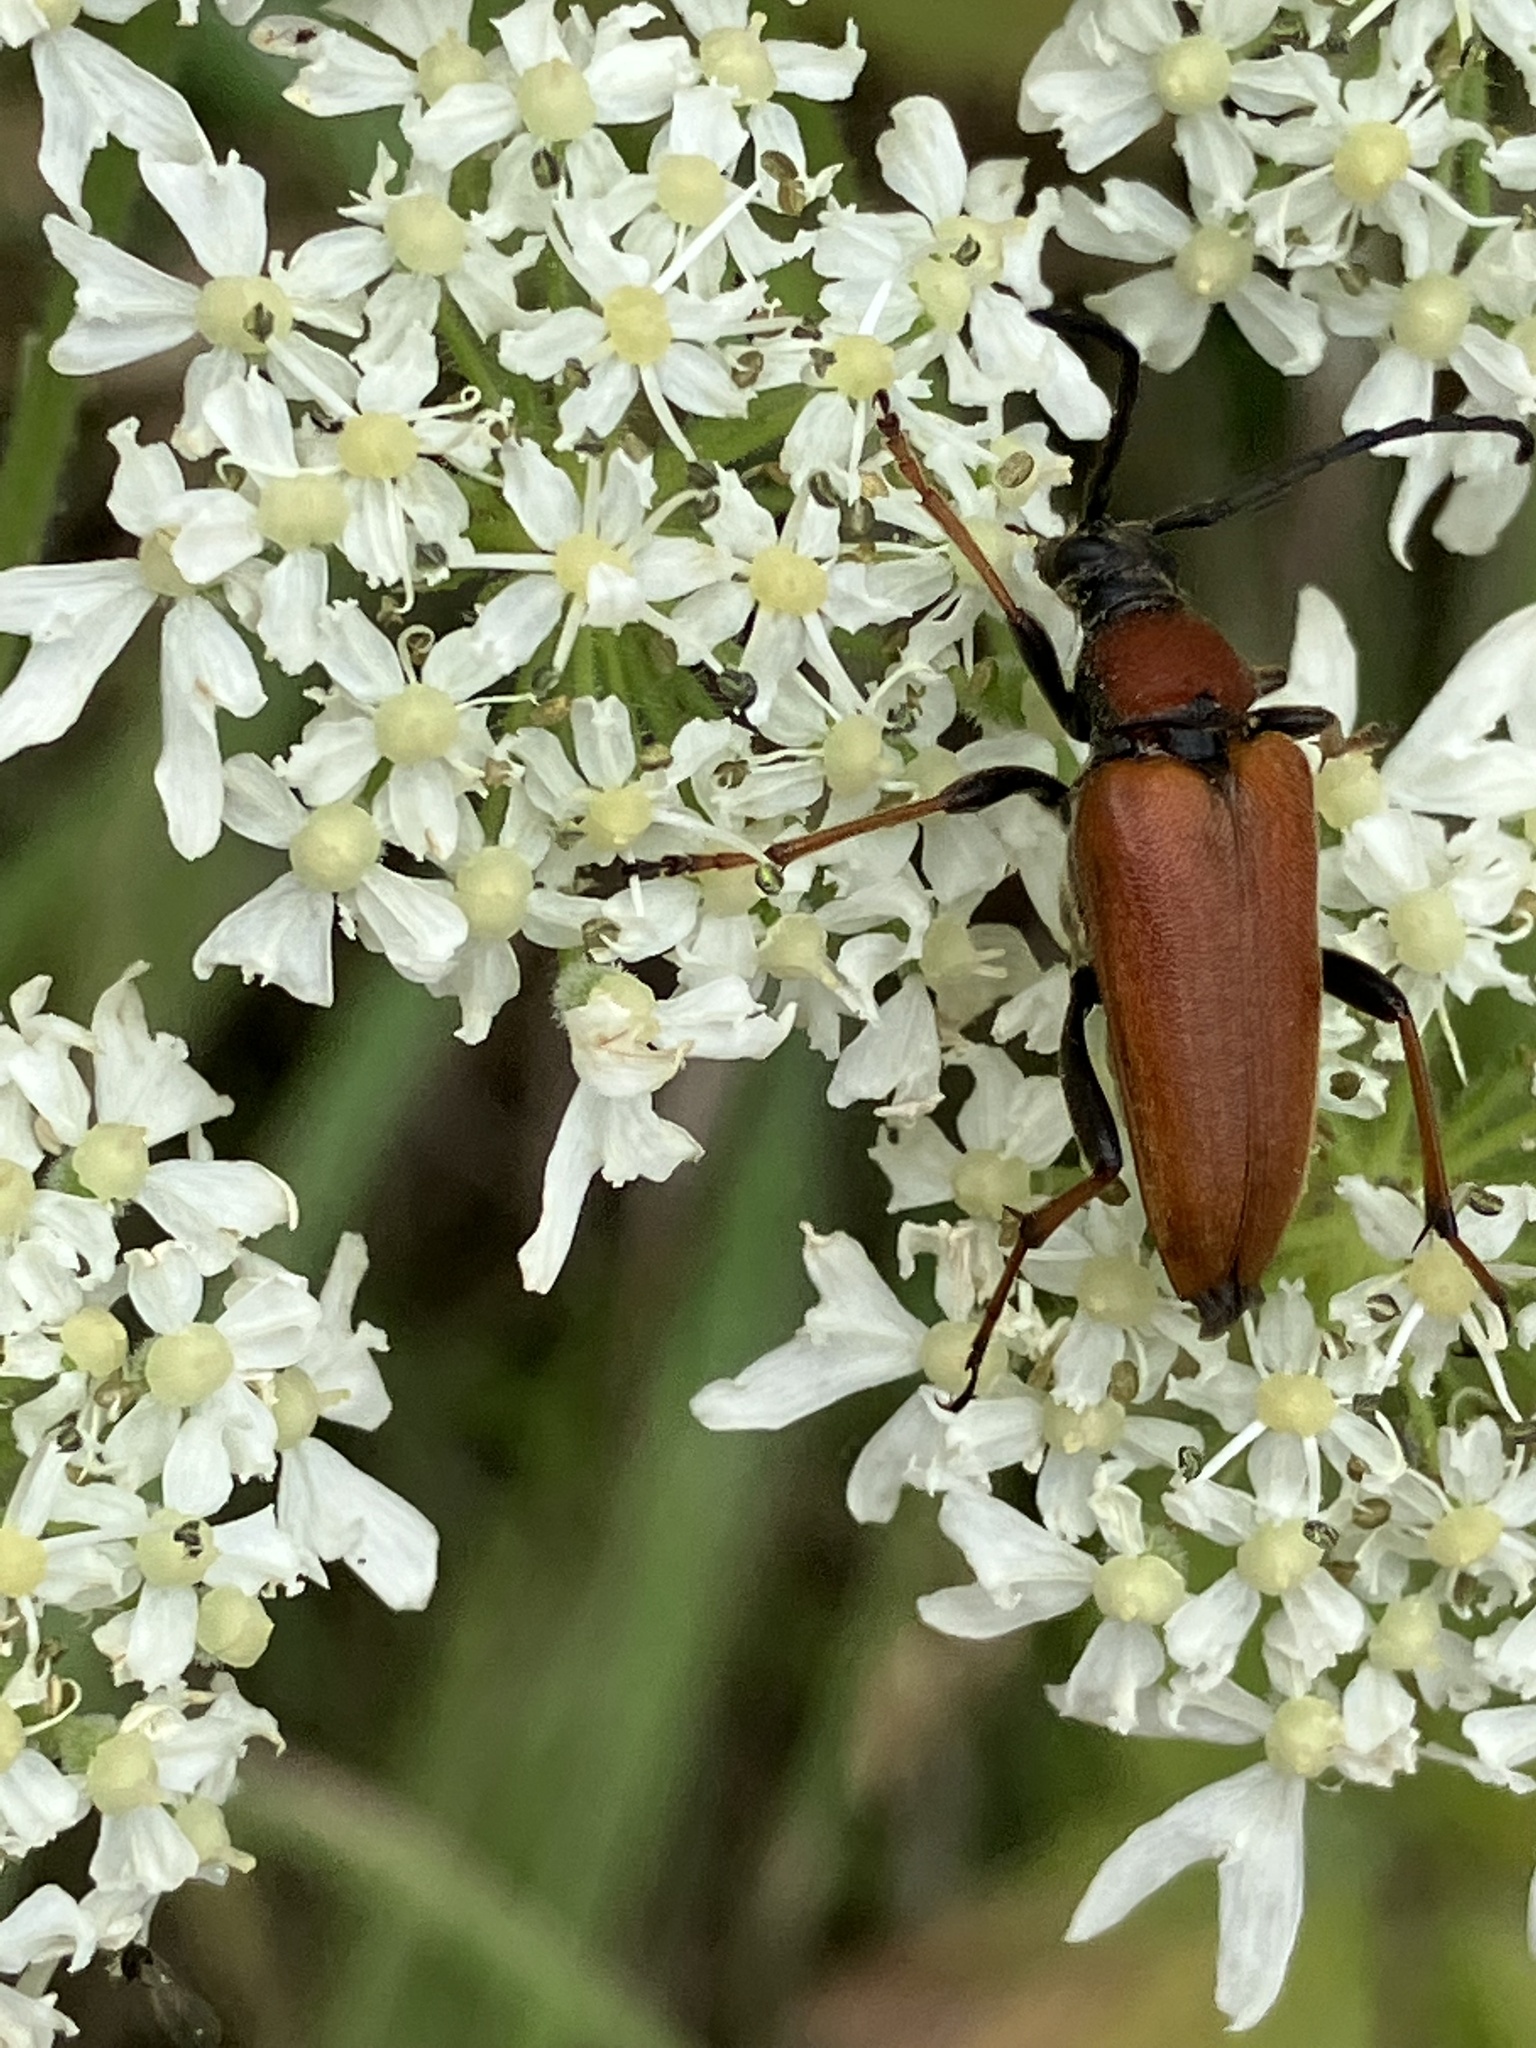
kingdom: Animalia
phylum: Arthropoda
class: Insecta
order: Coleoptera
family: Cerambycidae
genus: Stictoleptura
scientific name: Stictoleptura rubra
